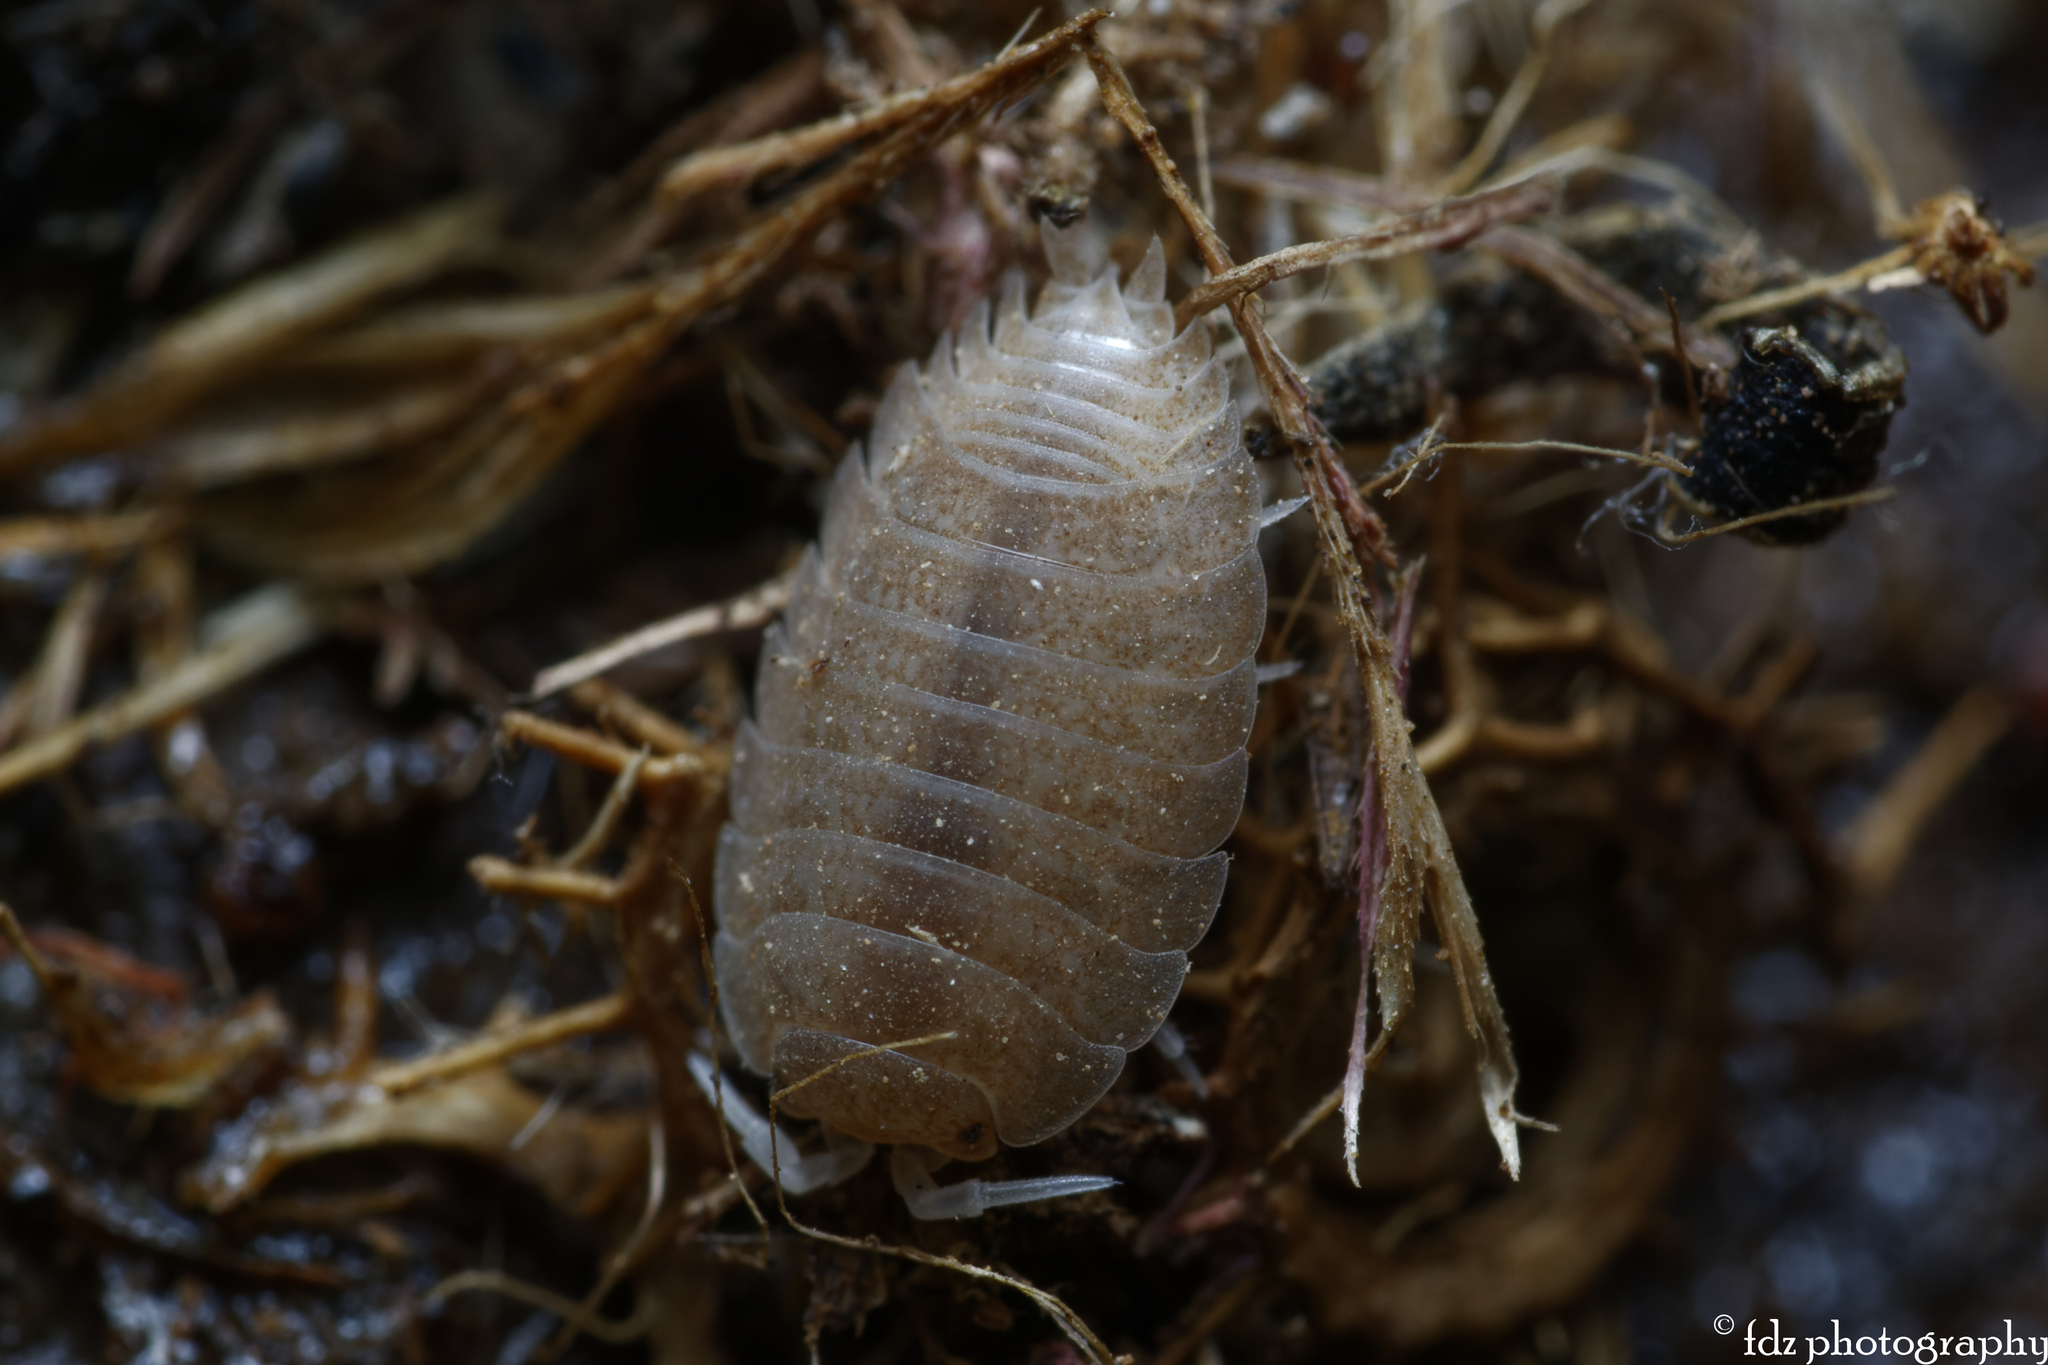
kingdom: Animalia
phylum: Arthropoda
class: Malacostraca
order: Isopoda
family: Porcellionidae
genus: Lucasius
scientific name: Lucasius andalusicus
